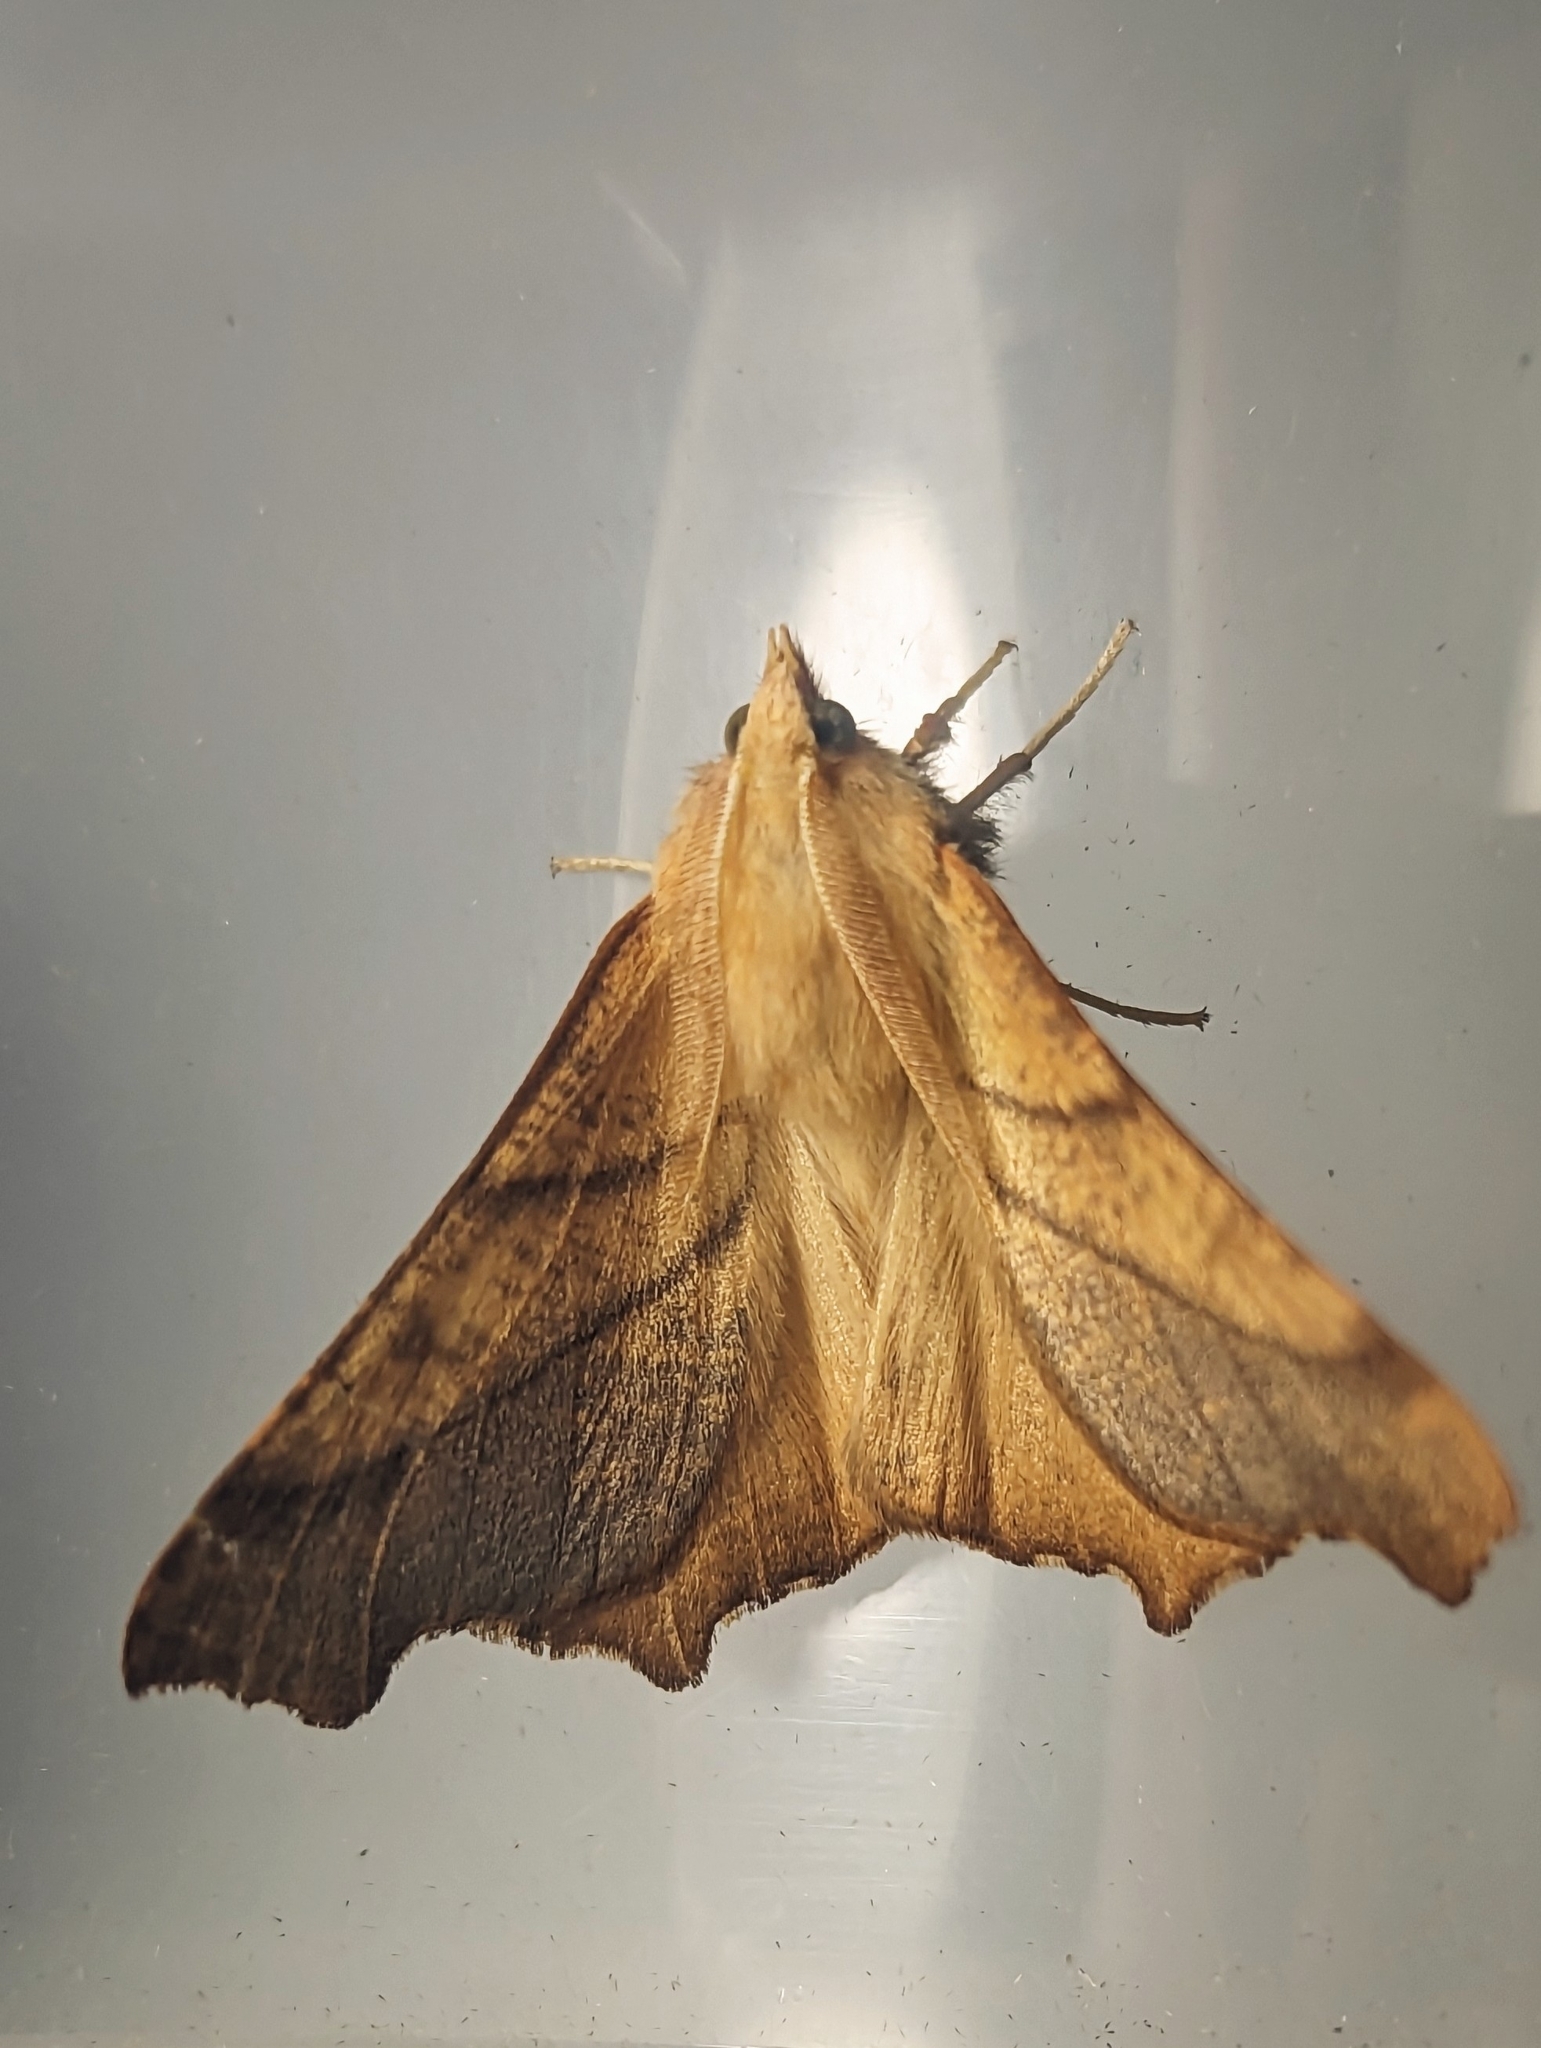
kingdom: Animalia
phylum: Arthropoda
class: Insecta
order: Lepidoptera
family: Geometridae
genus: Ennomos
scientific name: Ennomos fuscantaria
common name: Dusky thorn
